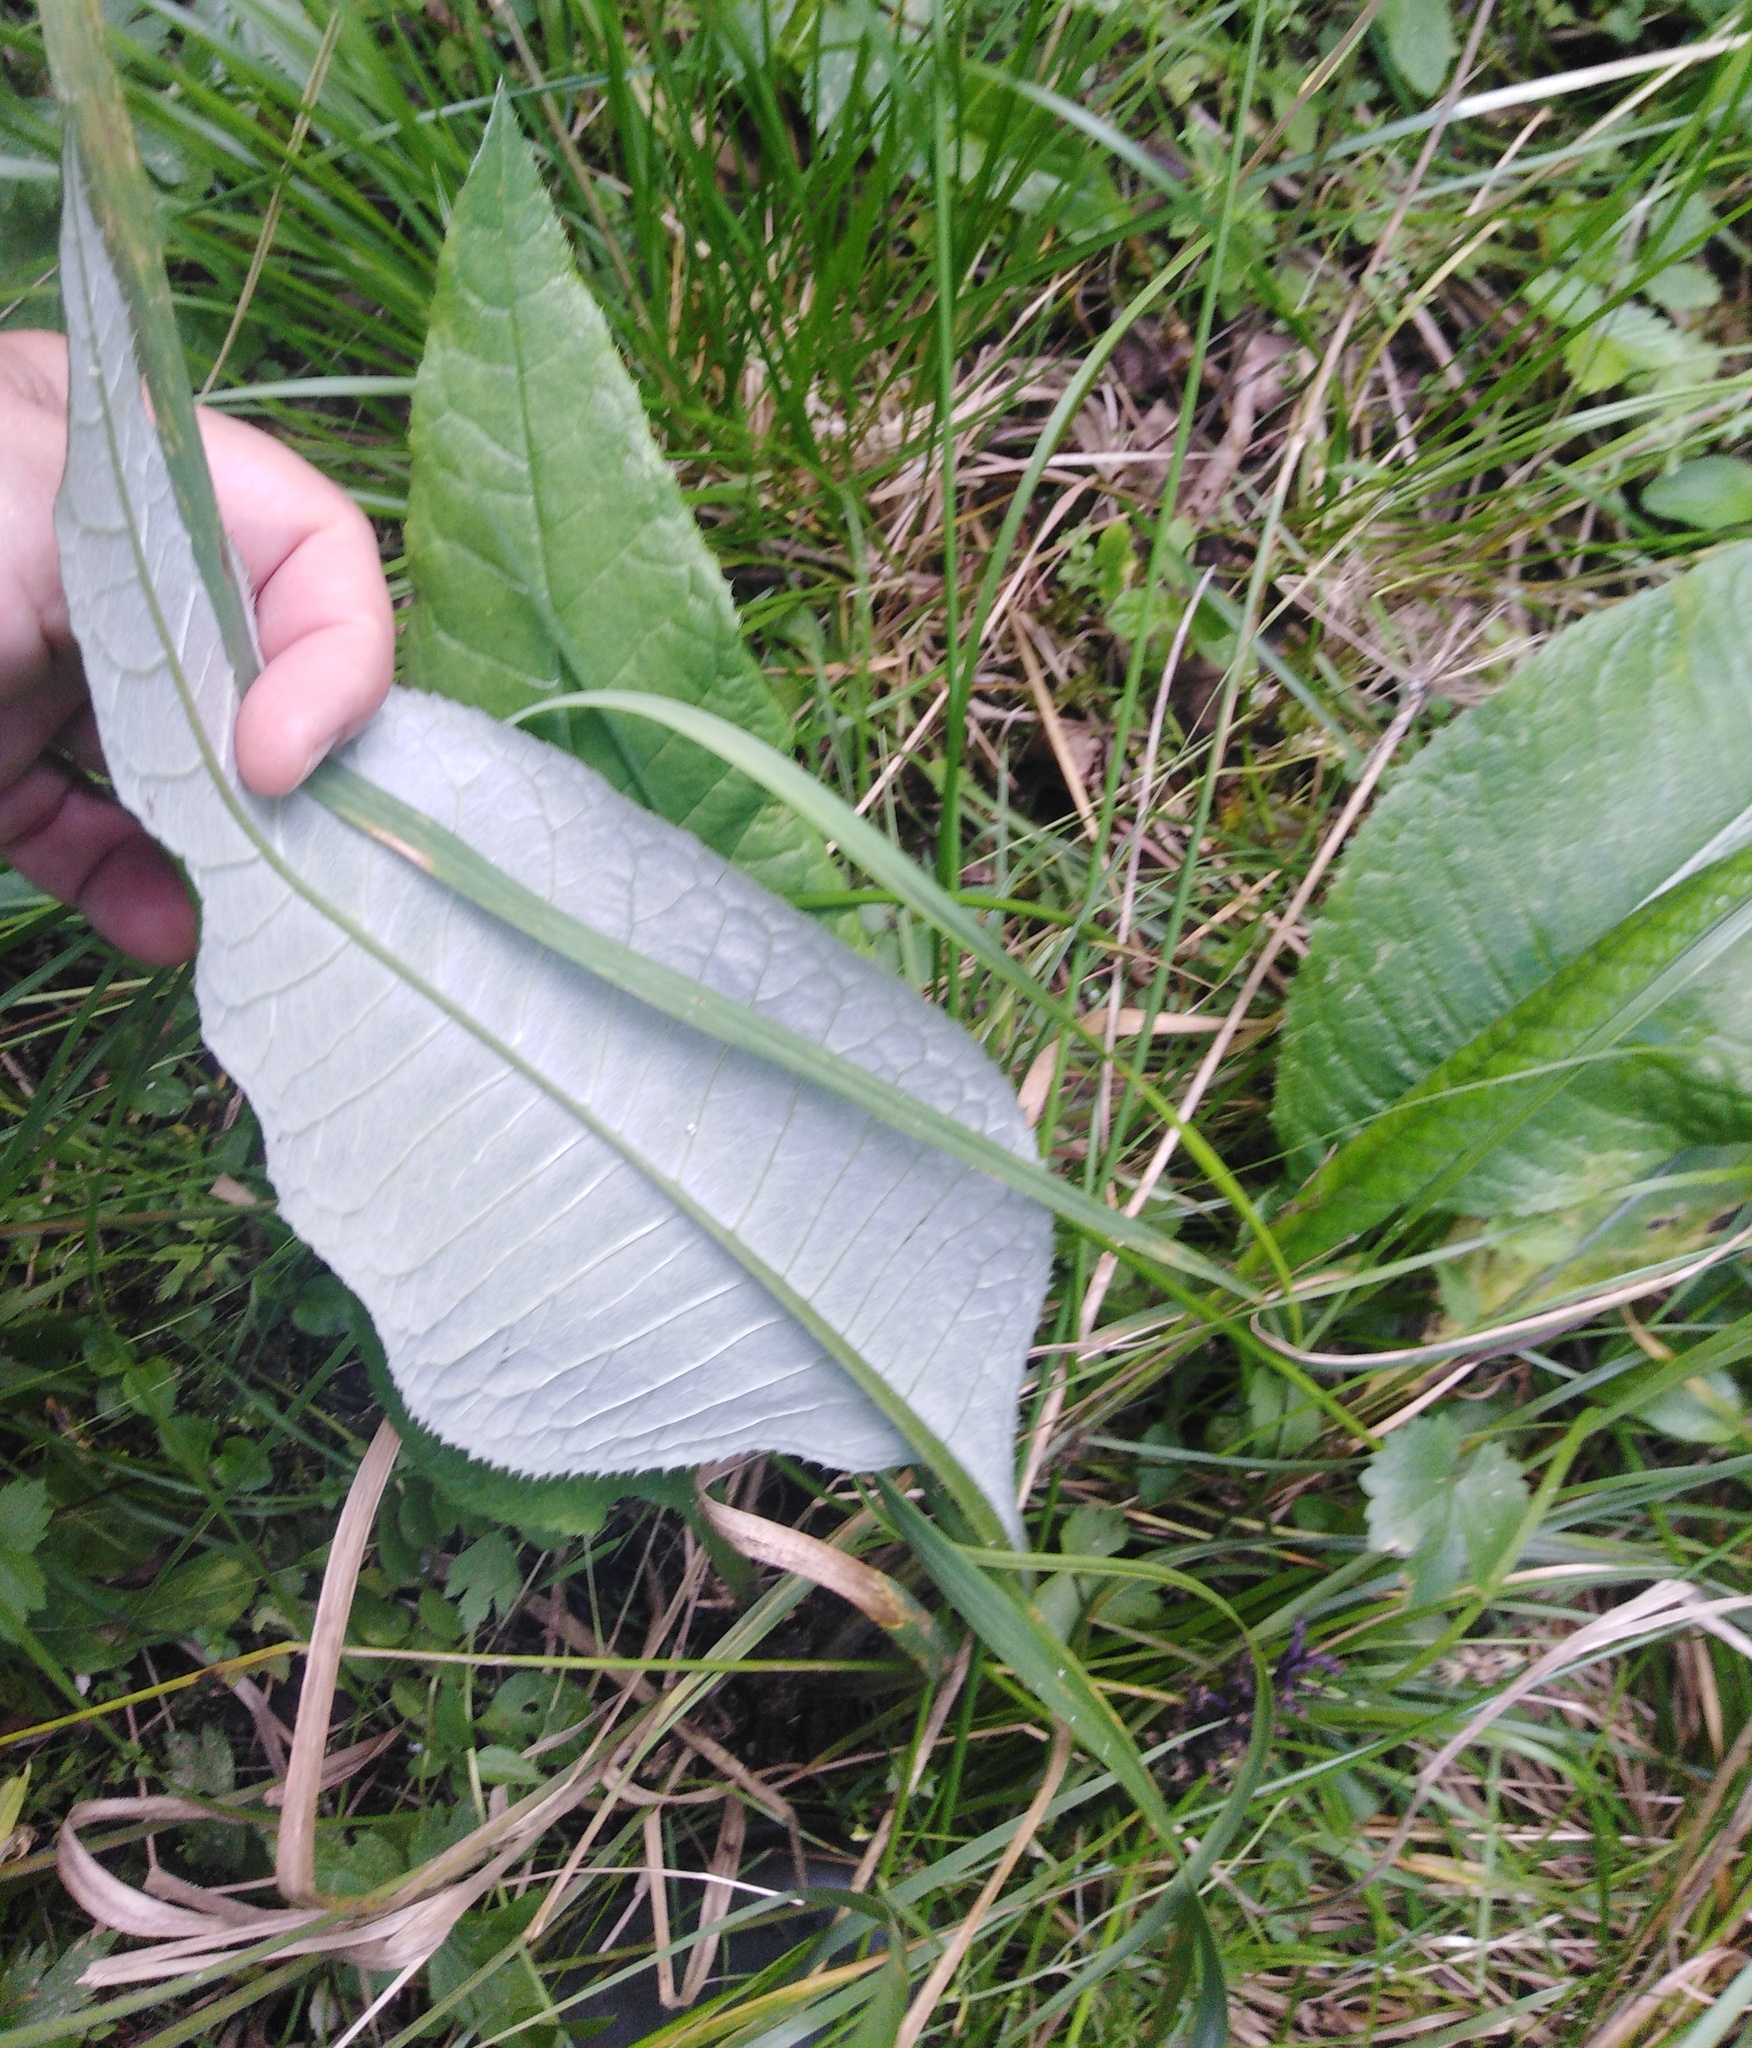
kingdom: Plantae
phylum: Tracheophyta
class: Magnoliopsida
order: Asterales
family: Asteraceae
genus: Cirsium
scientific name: Cirsium heterophyllum
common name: Melancholy thistle
